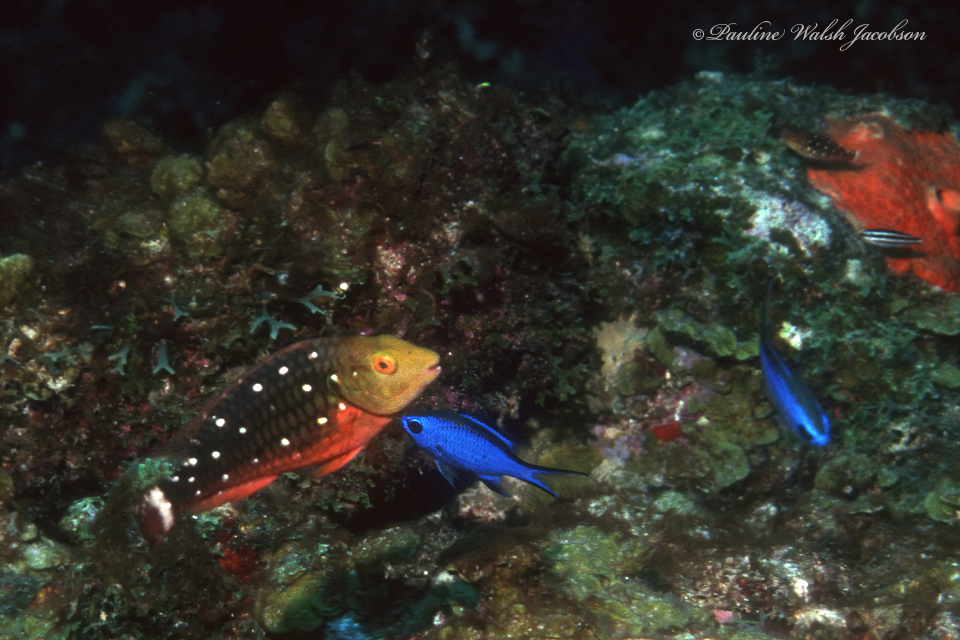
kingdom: Animalia
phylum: Chordata
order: Perciformes
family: Pomacentridae
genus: Chromis
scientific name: Chromis cyanea
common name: Blue chromis
